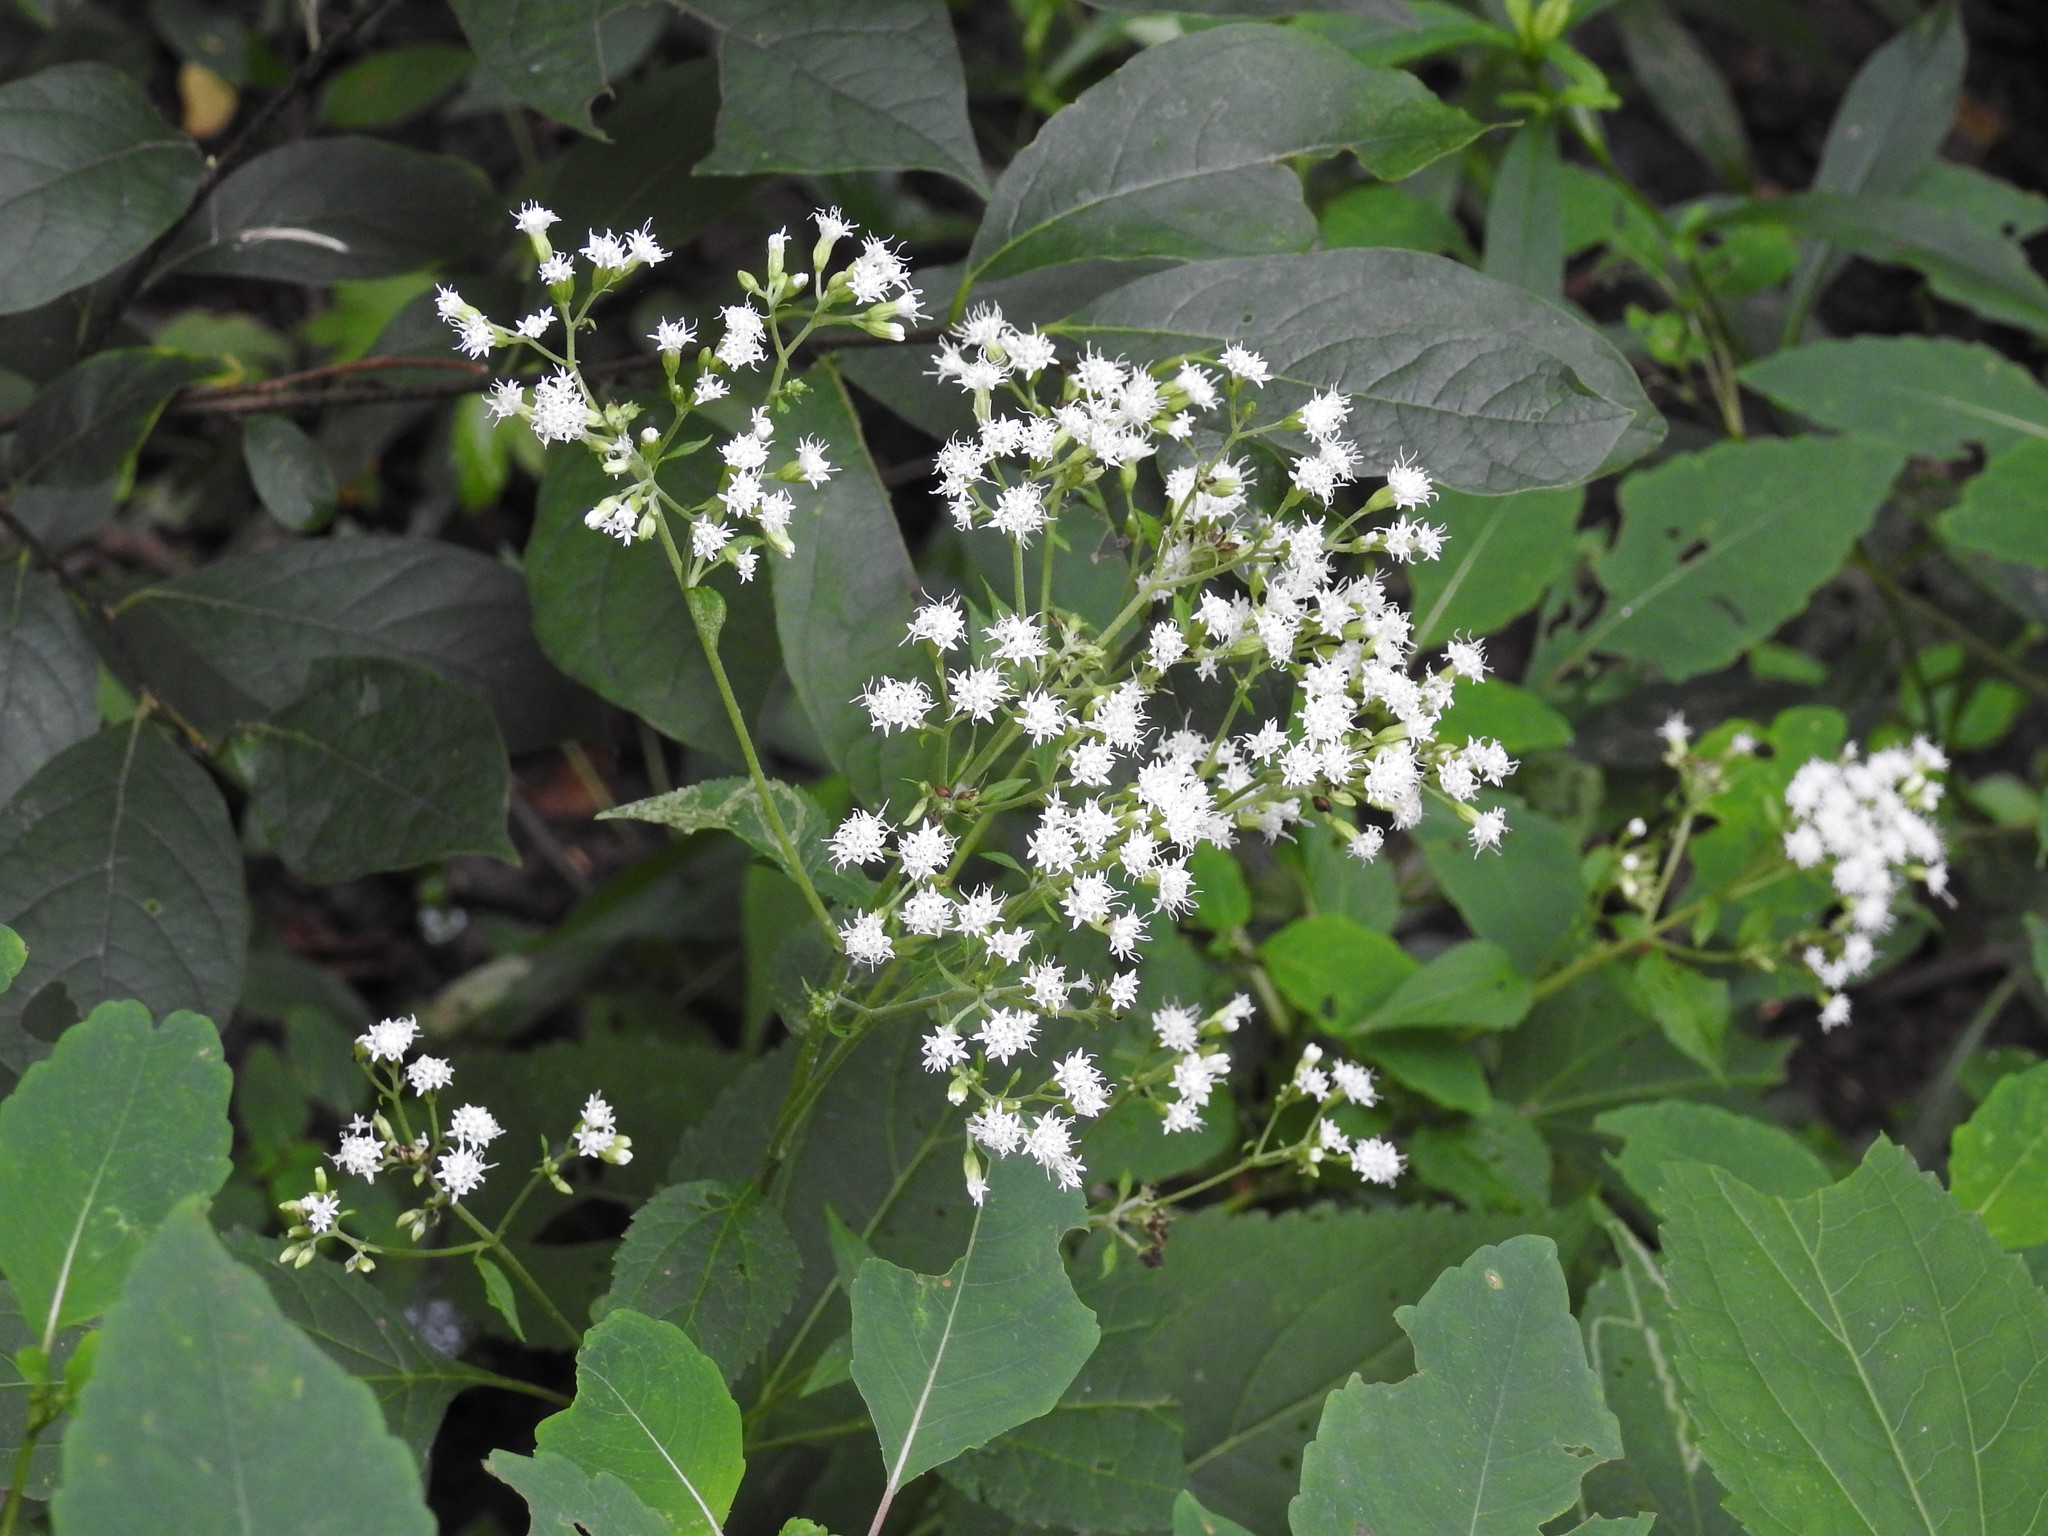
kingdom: Plantae
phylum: Tracheophyta
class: Magnoliopsida
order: Asterales
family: Asteraceae
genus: Ageratina
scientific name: Ageratina altissima
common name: White snakeroot
